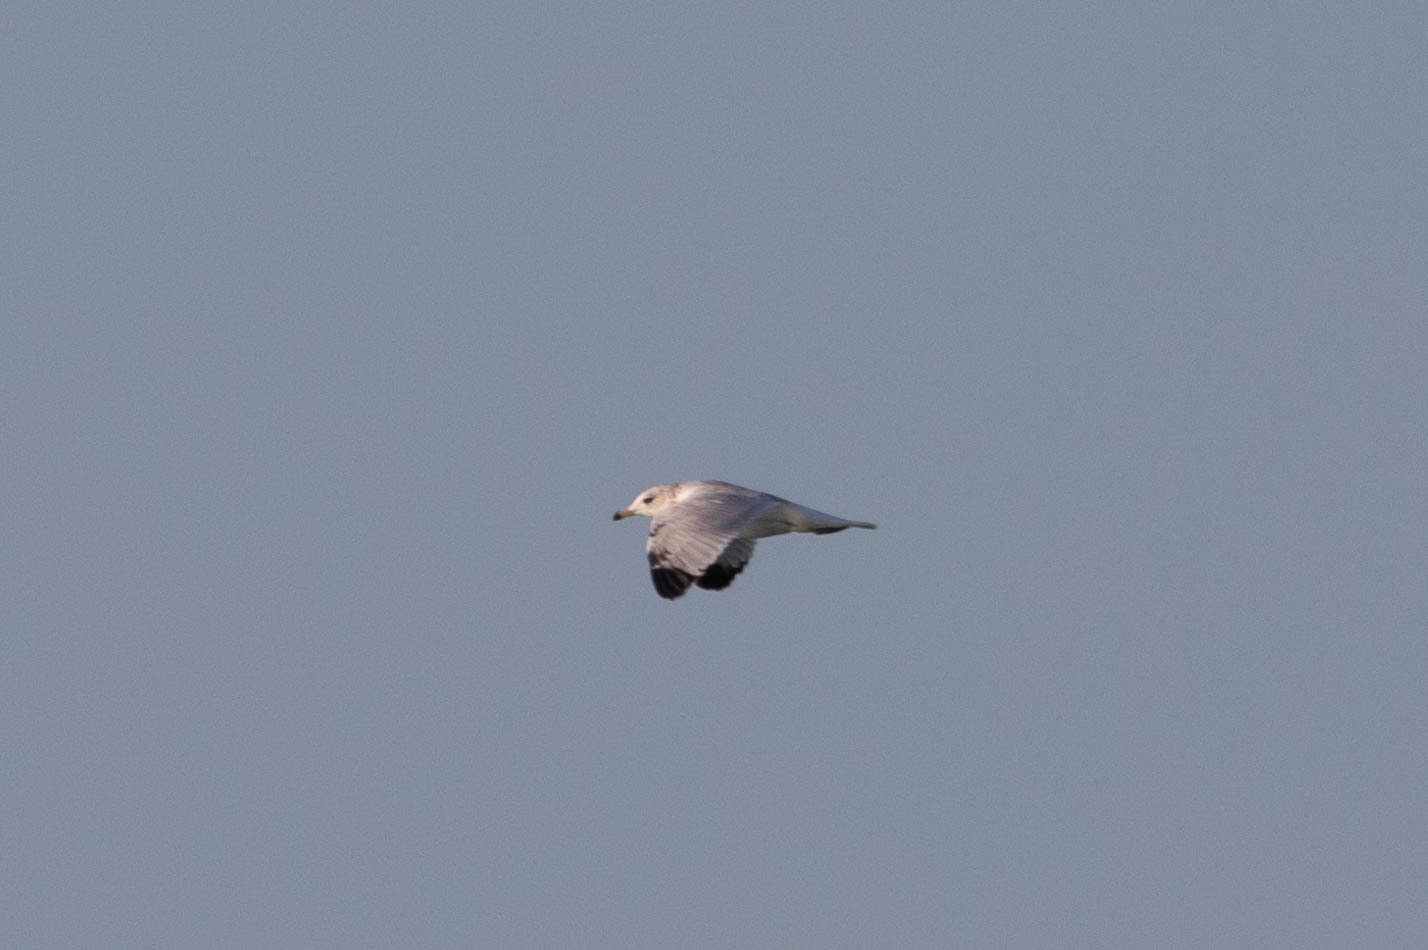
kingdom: Animalia
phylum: Chordata
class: Aves
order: Charadriiformes
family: Laridae
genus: Larus
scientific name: Larus delawarensis
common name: Ring-billed gull
